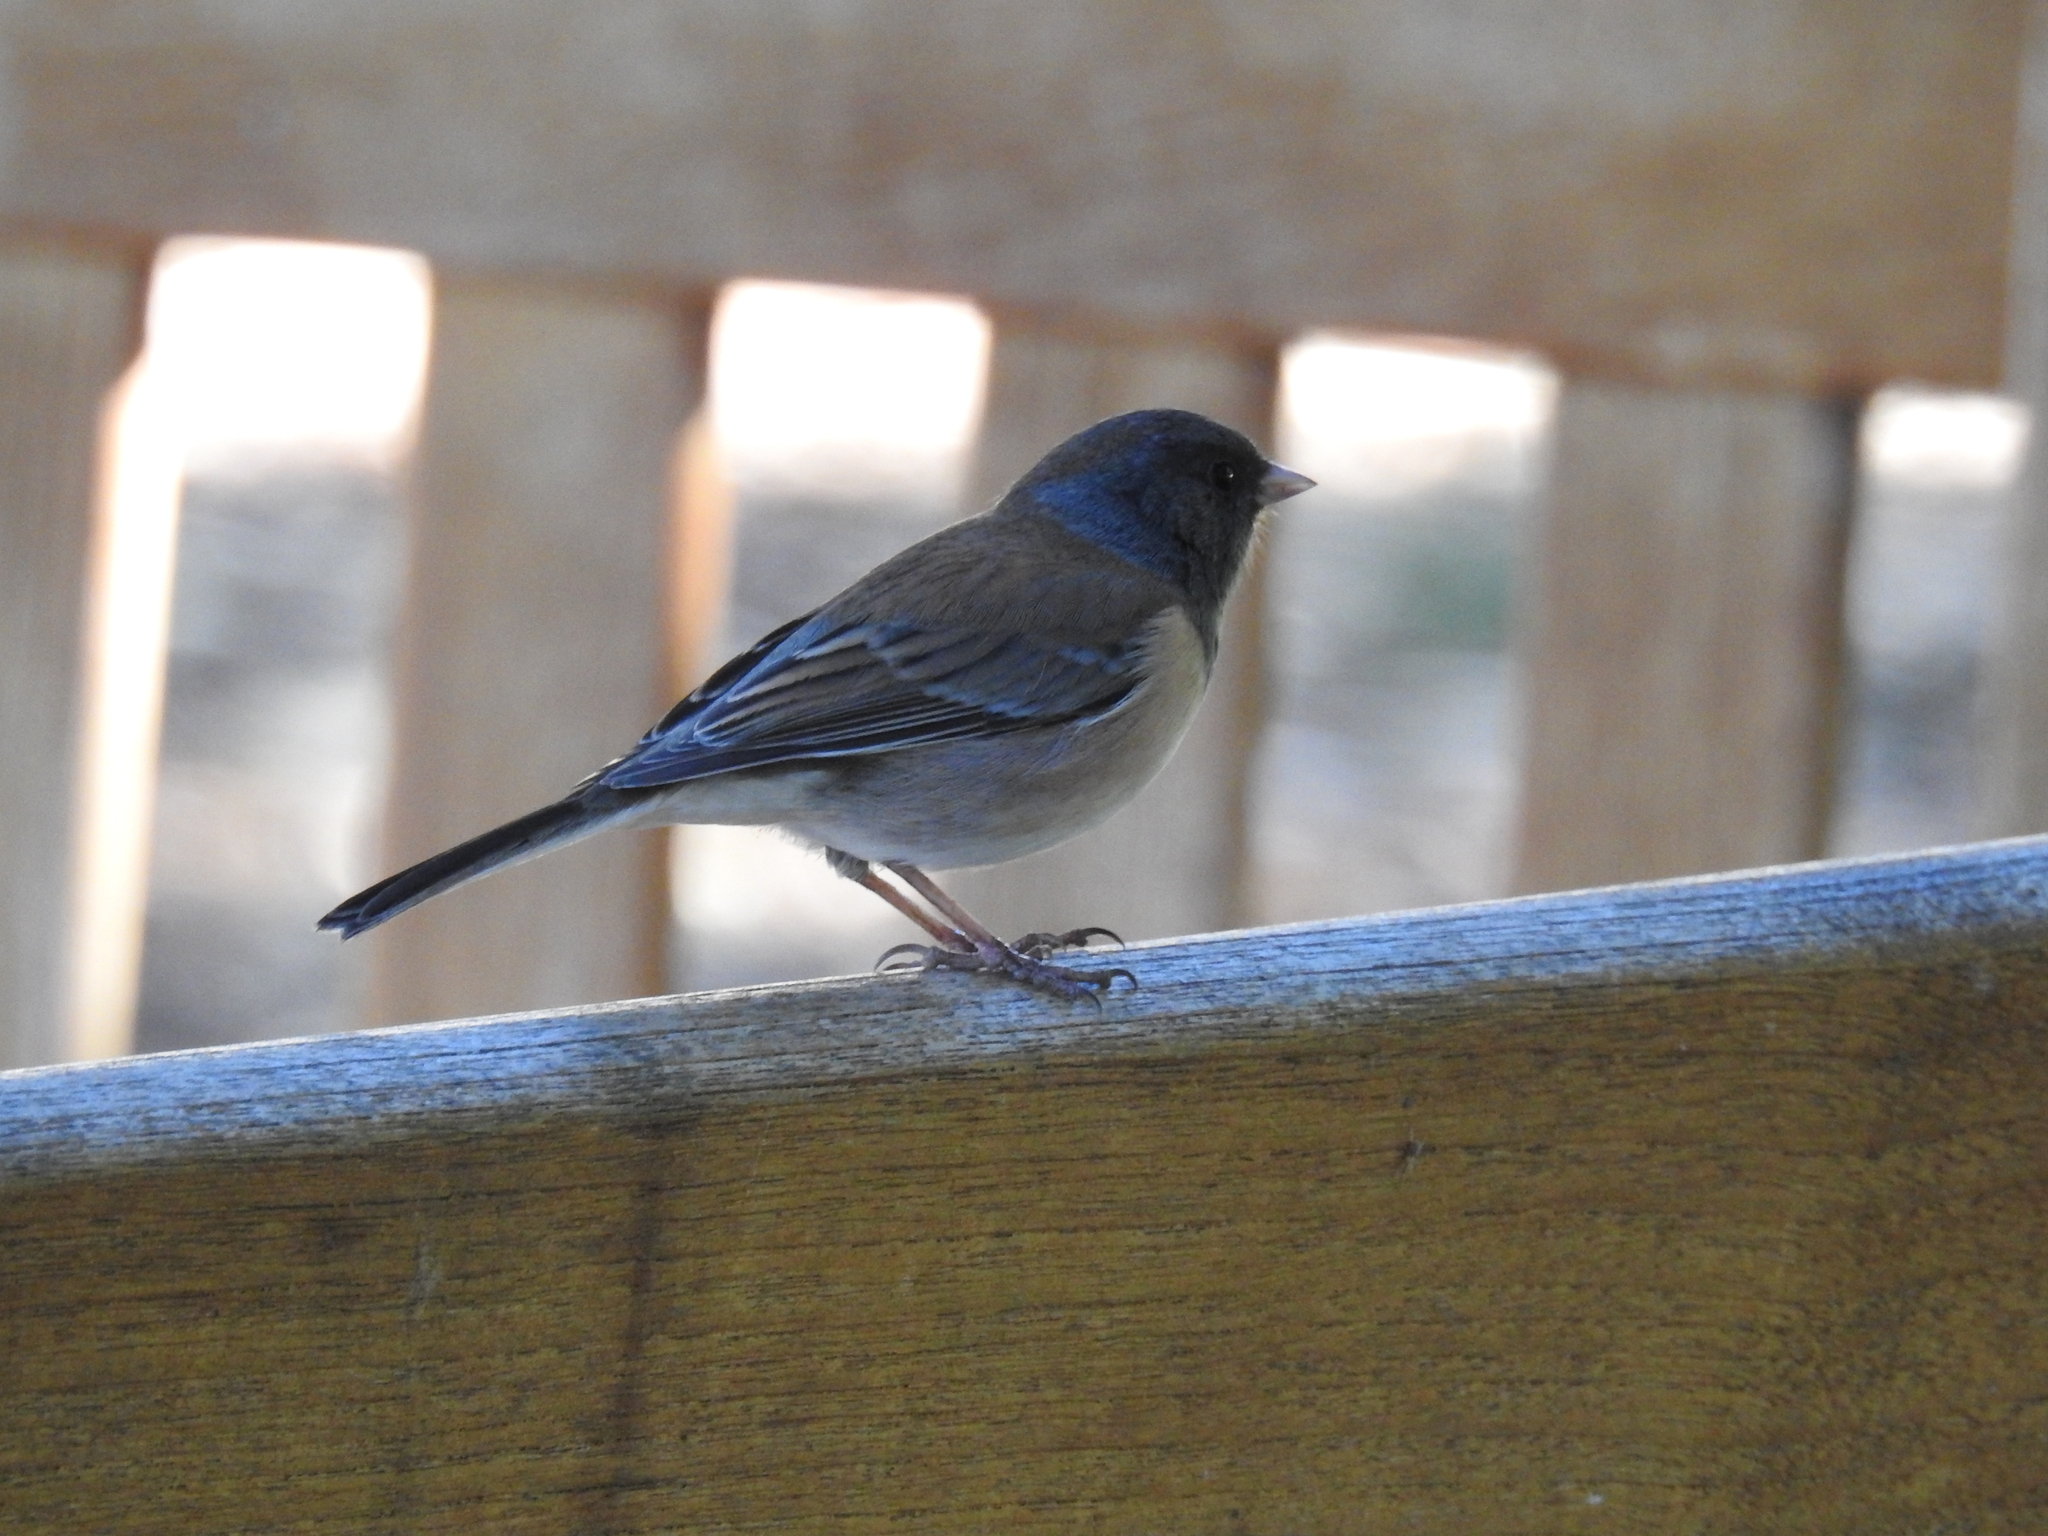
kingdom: Animalia
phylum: Chordata
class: Aves
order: Passeriformes
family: Passerellidae
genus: Junco
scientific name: Junco hyemalis
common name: Dark-eyed junco
